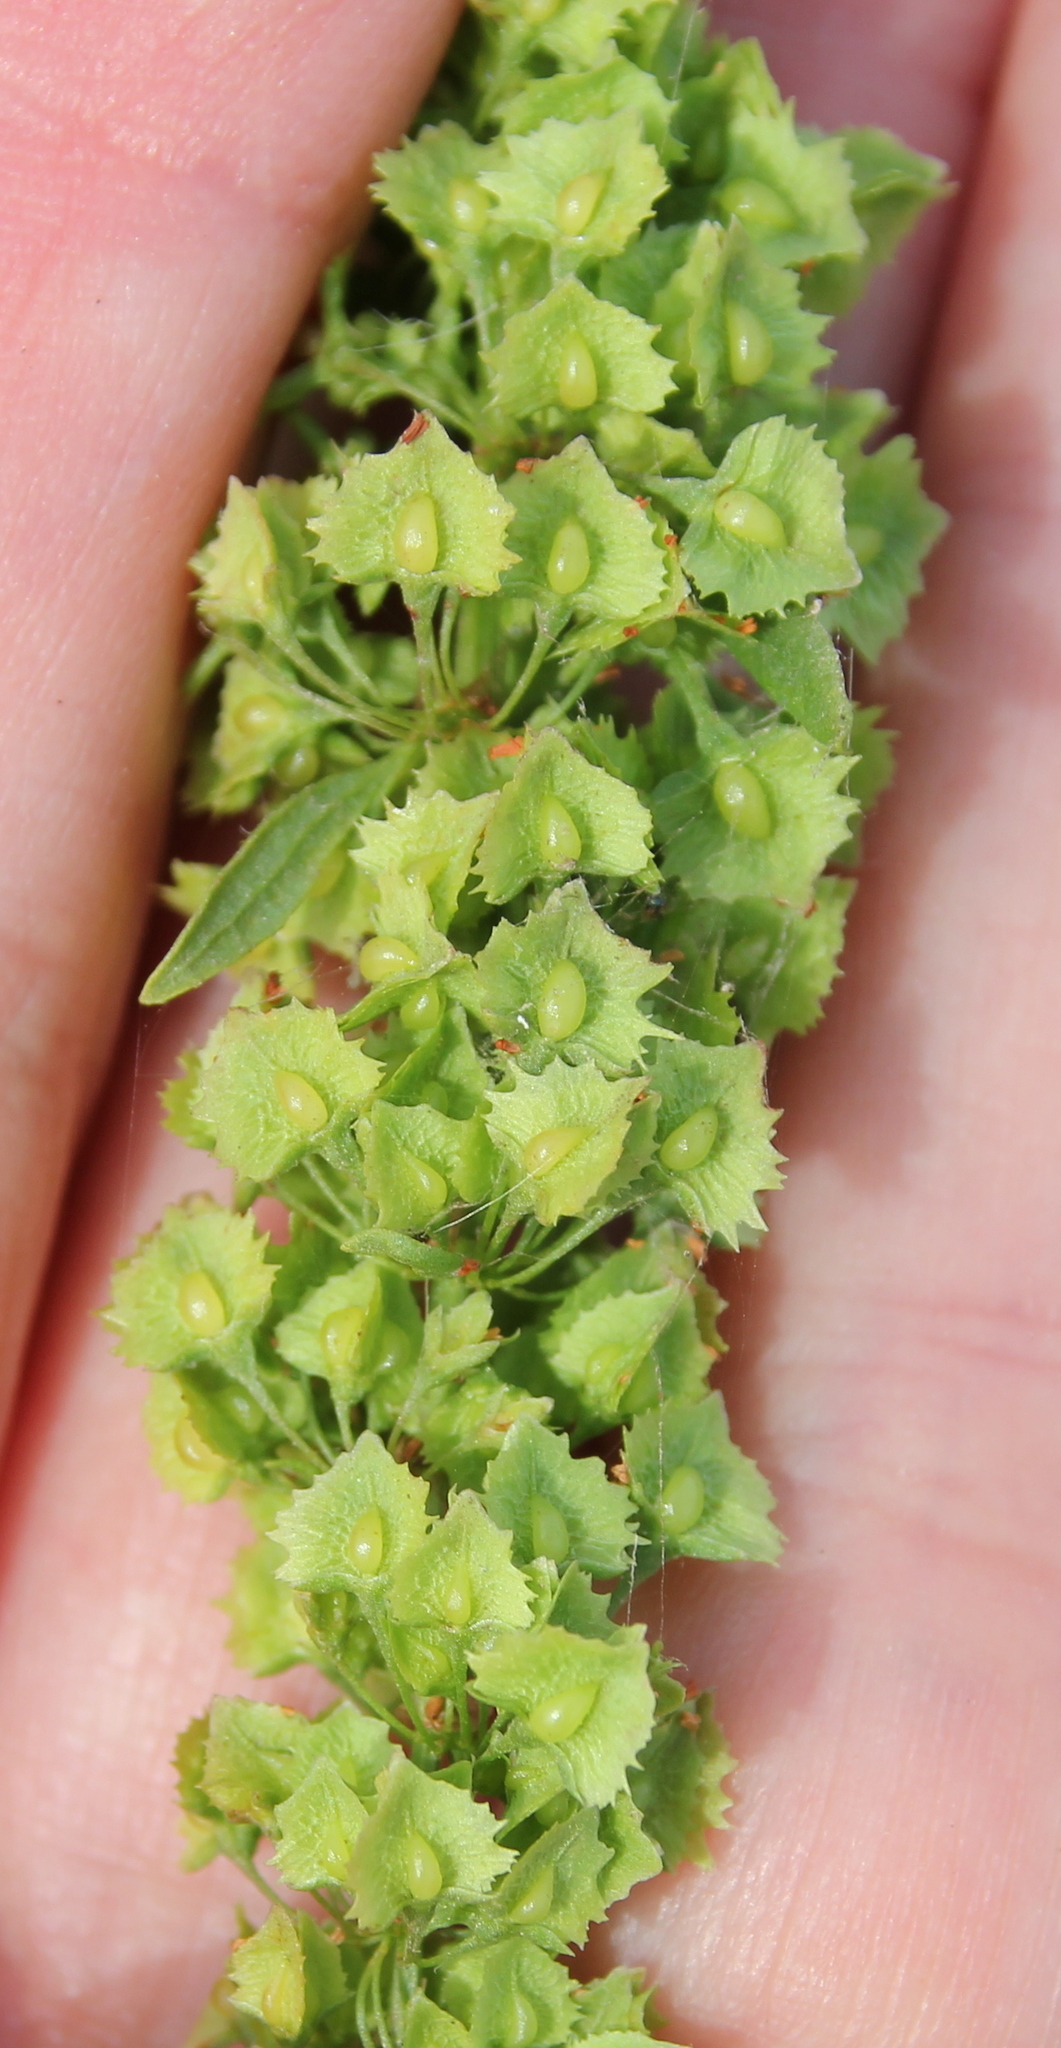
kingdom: Plantae
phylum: Tracheophyta
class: Magnoliopsida
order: Caryophyllales
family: Polygonaceae
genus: Rumex
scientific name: Rumex pulcher
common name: Fiddle dock
